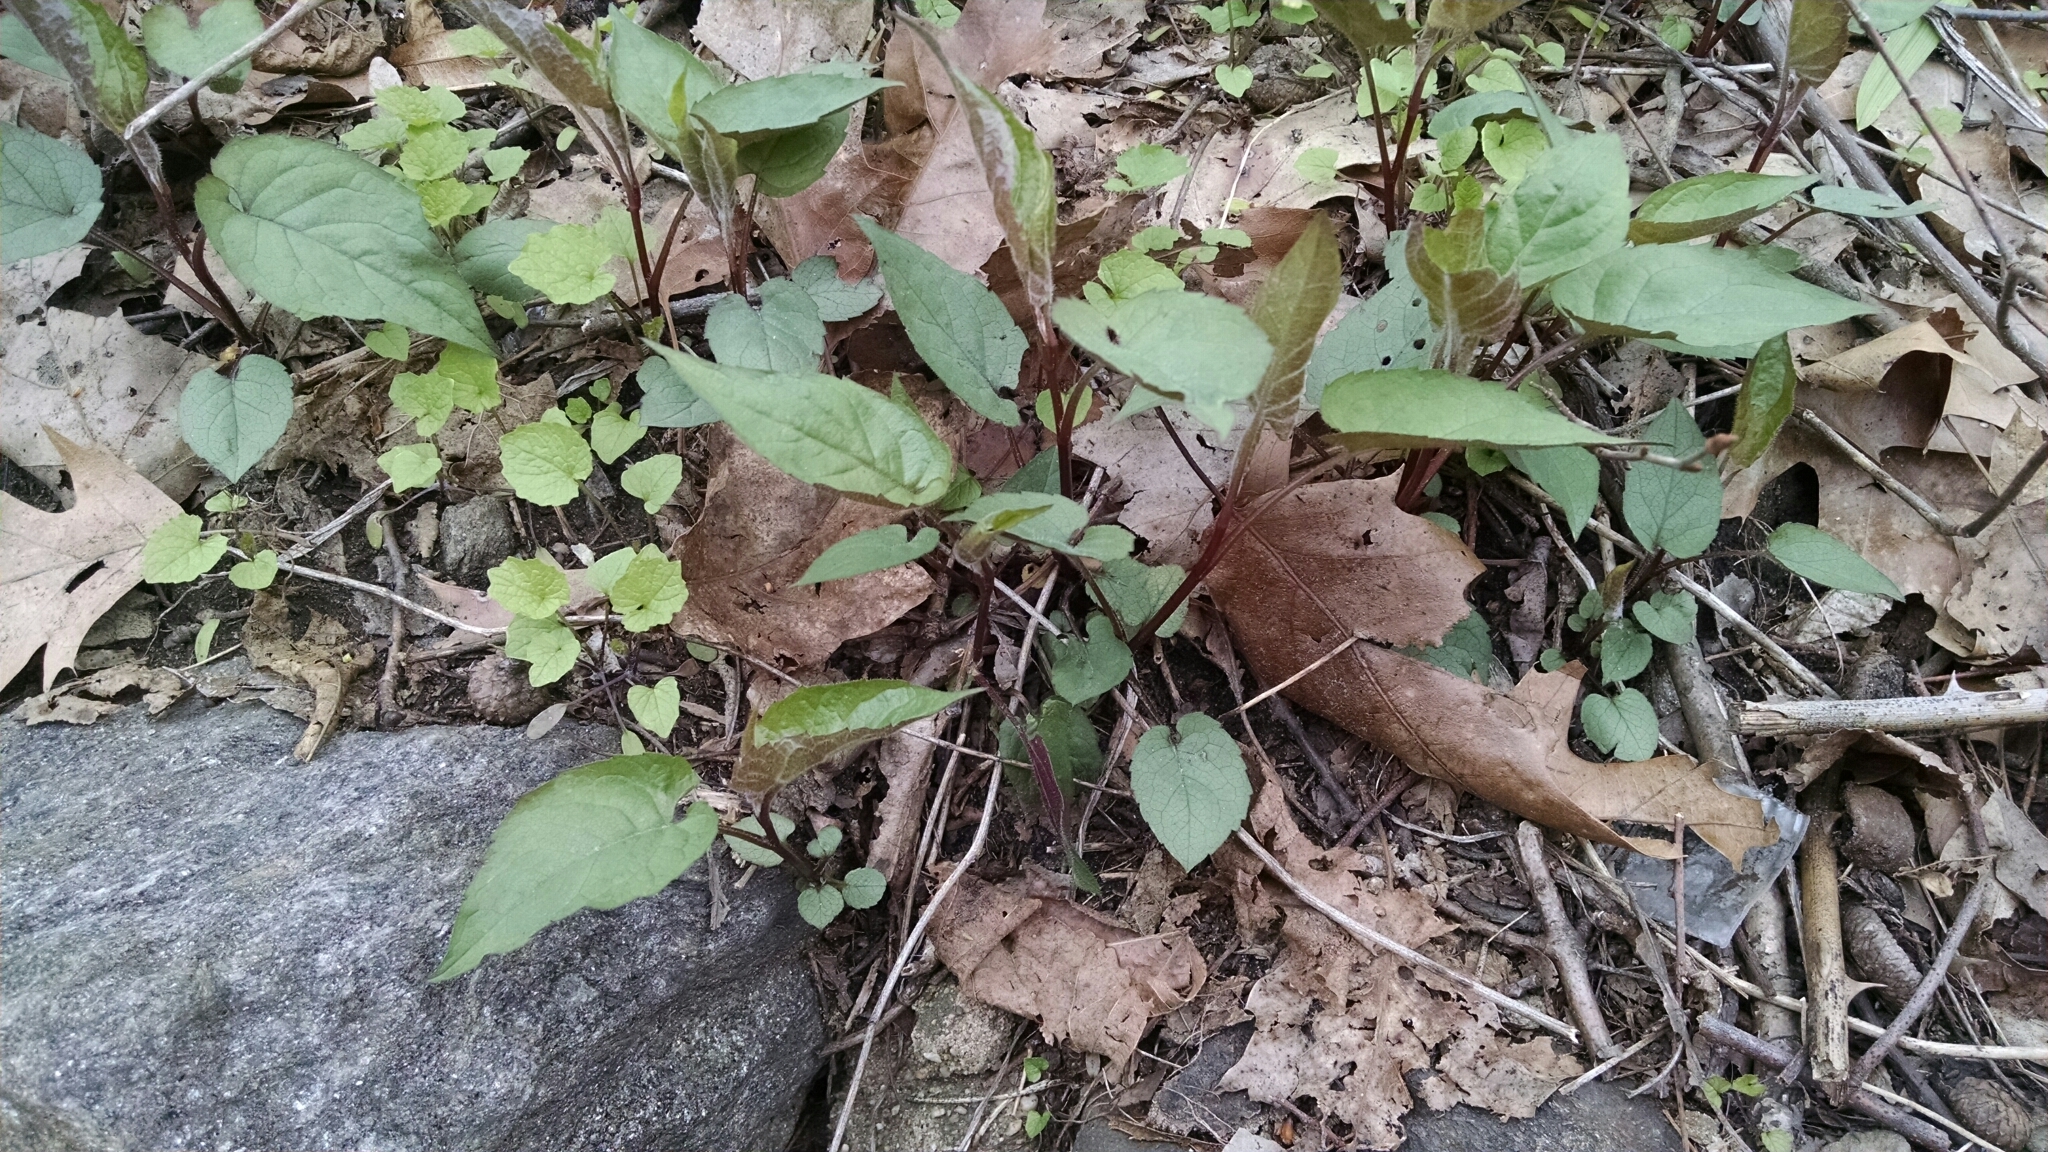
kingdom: Plantae
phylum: Tracheophyta
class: Magnoliopsida
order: Asterales
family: Asteraceae
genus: Eurybia
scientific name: Eurybia divaricata
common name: White wood aster
